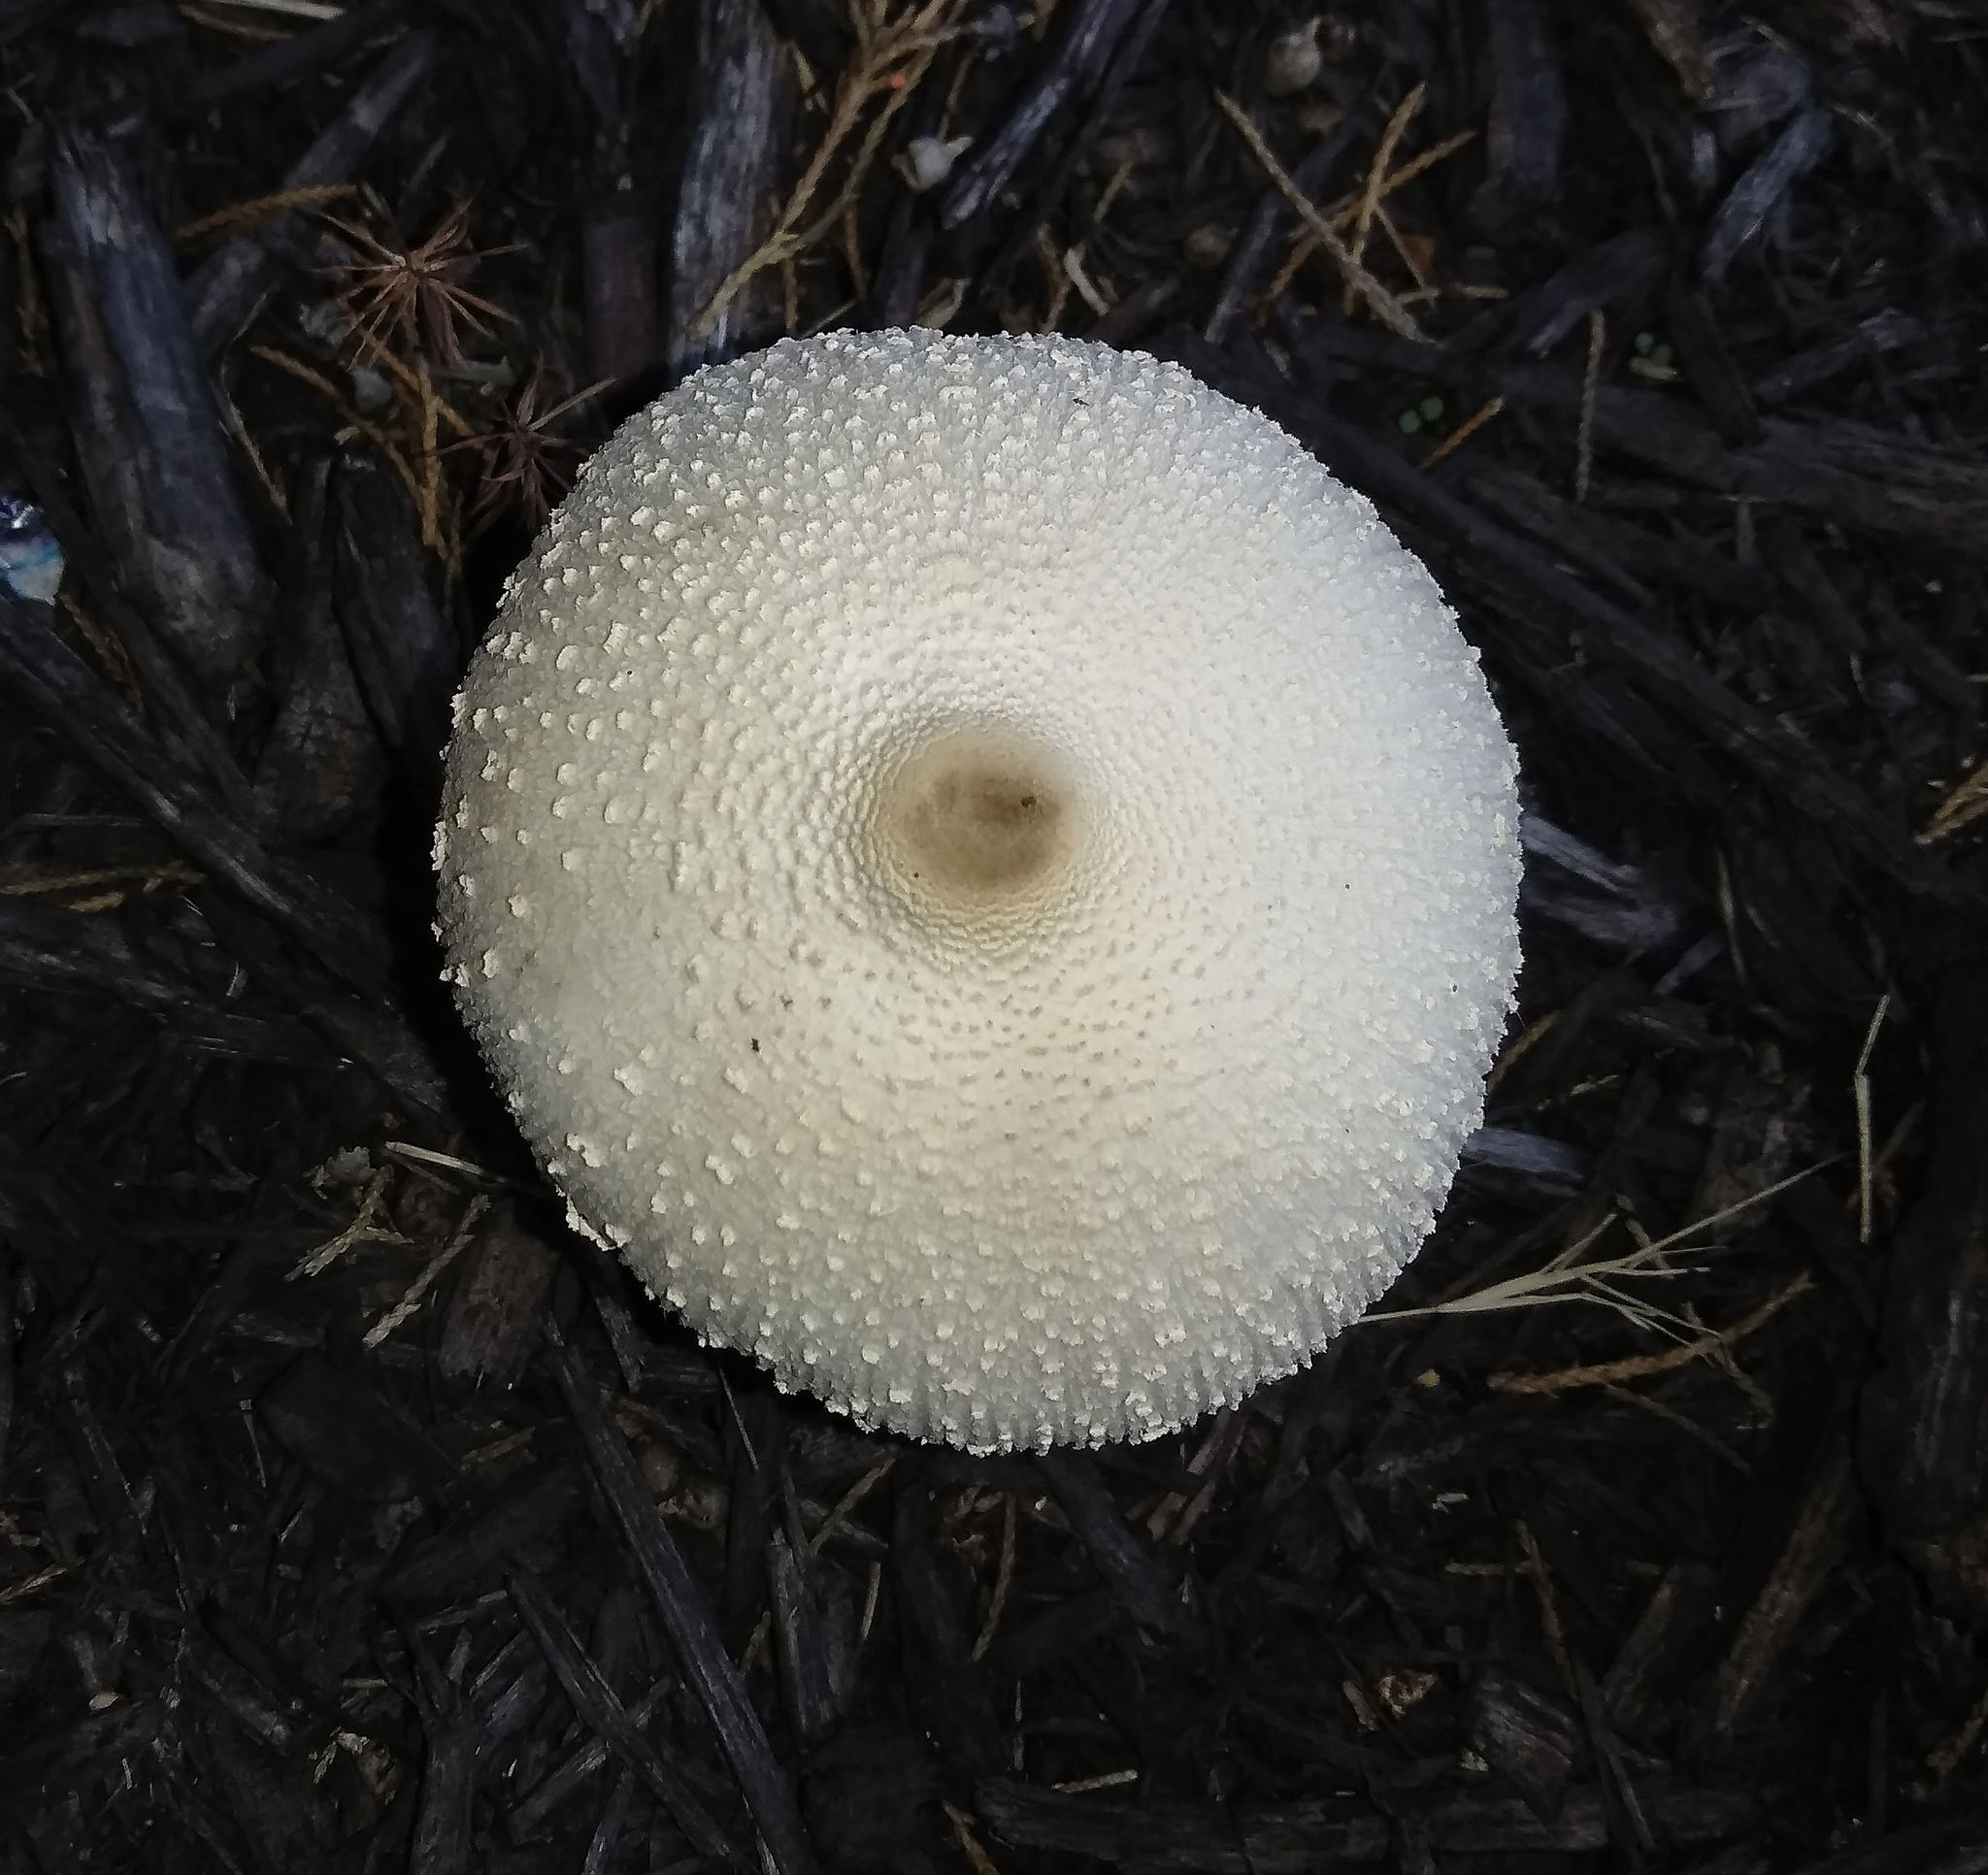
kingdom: Fungi
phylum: Basidiomycota
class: Agaricomycetes
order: Agaricales
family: Agaricaceae
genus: Leucocoprinus
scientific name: Leucocoprinus cepistipes
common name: Onion-stalk parasol
